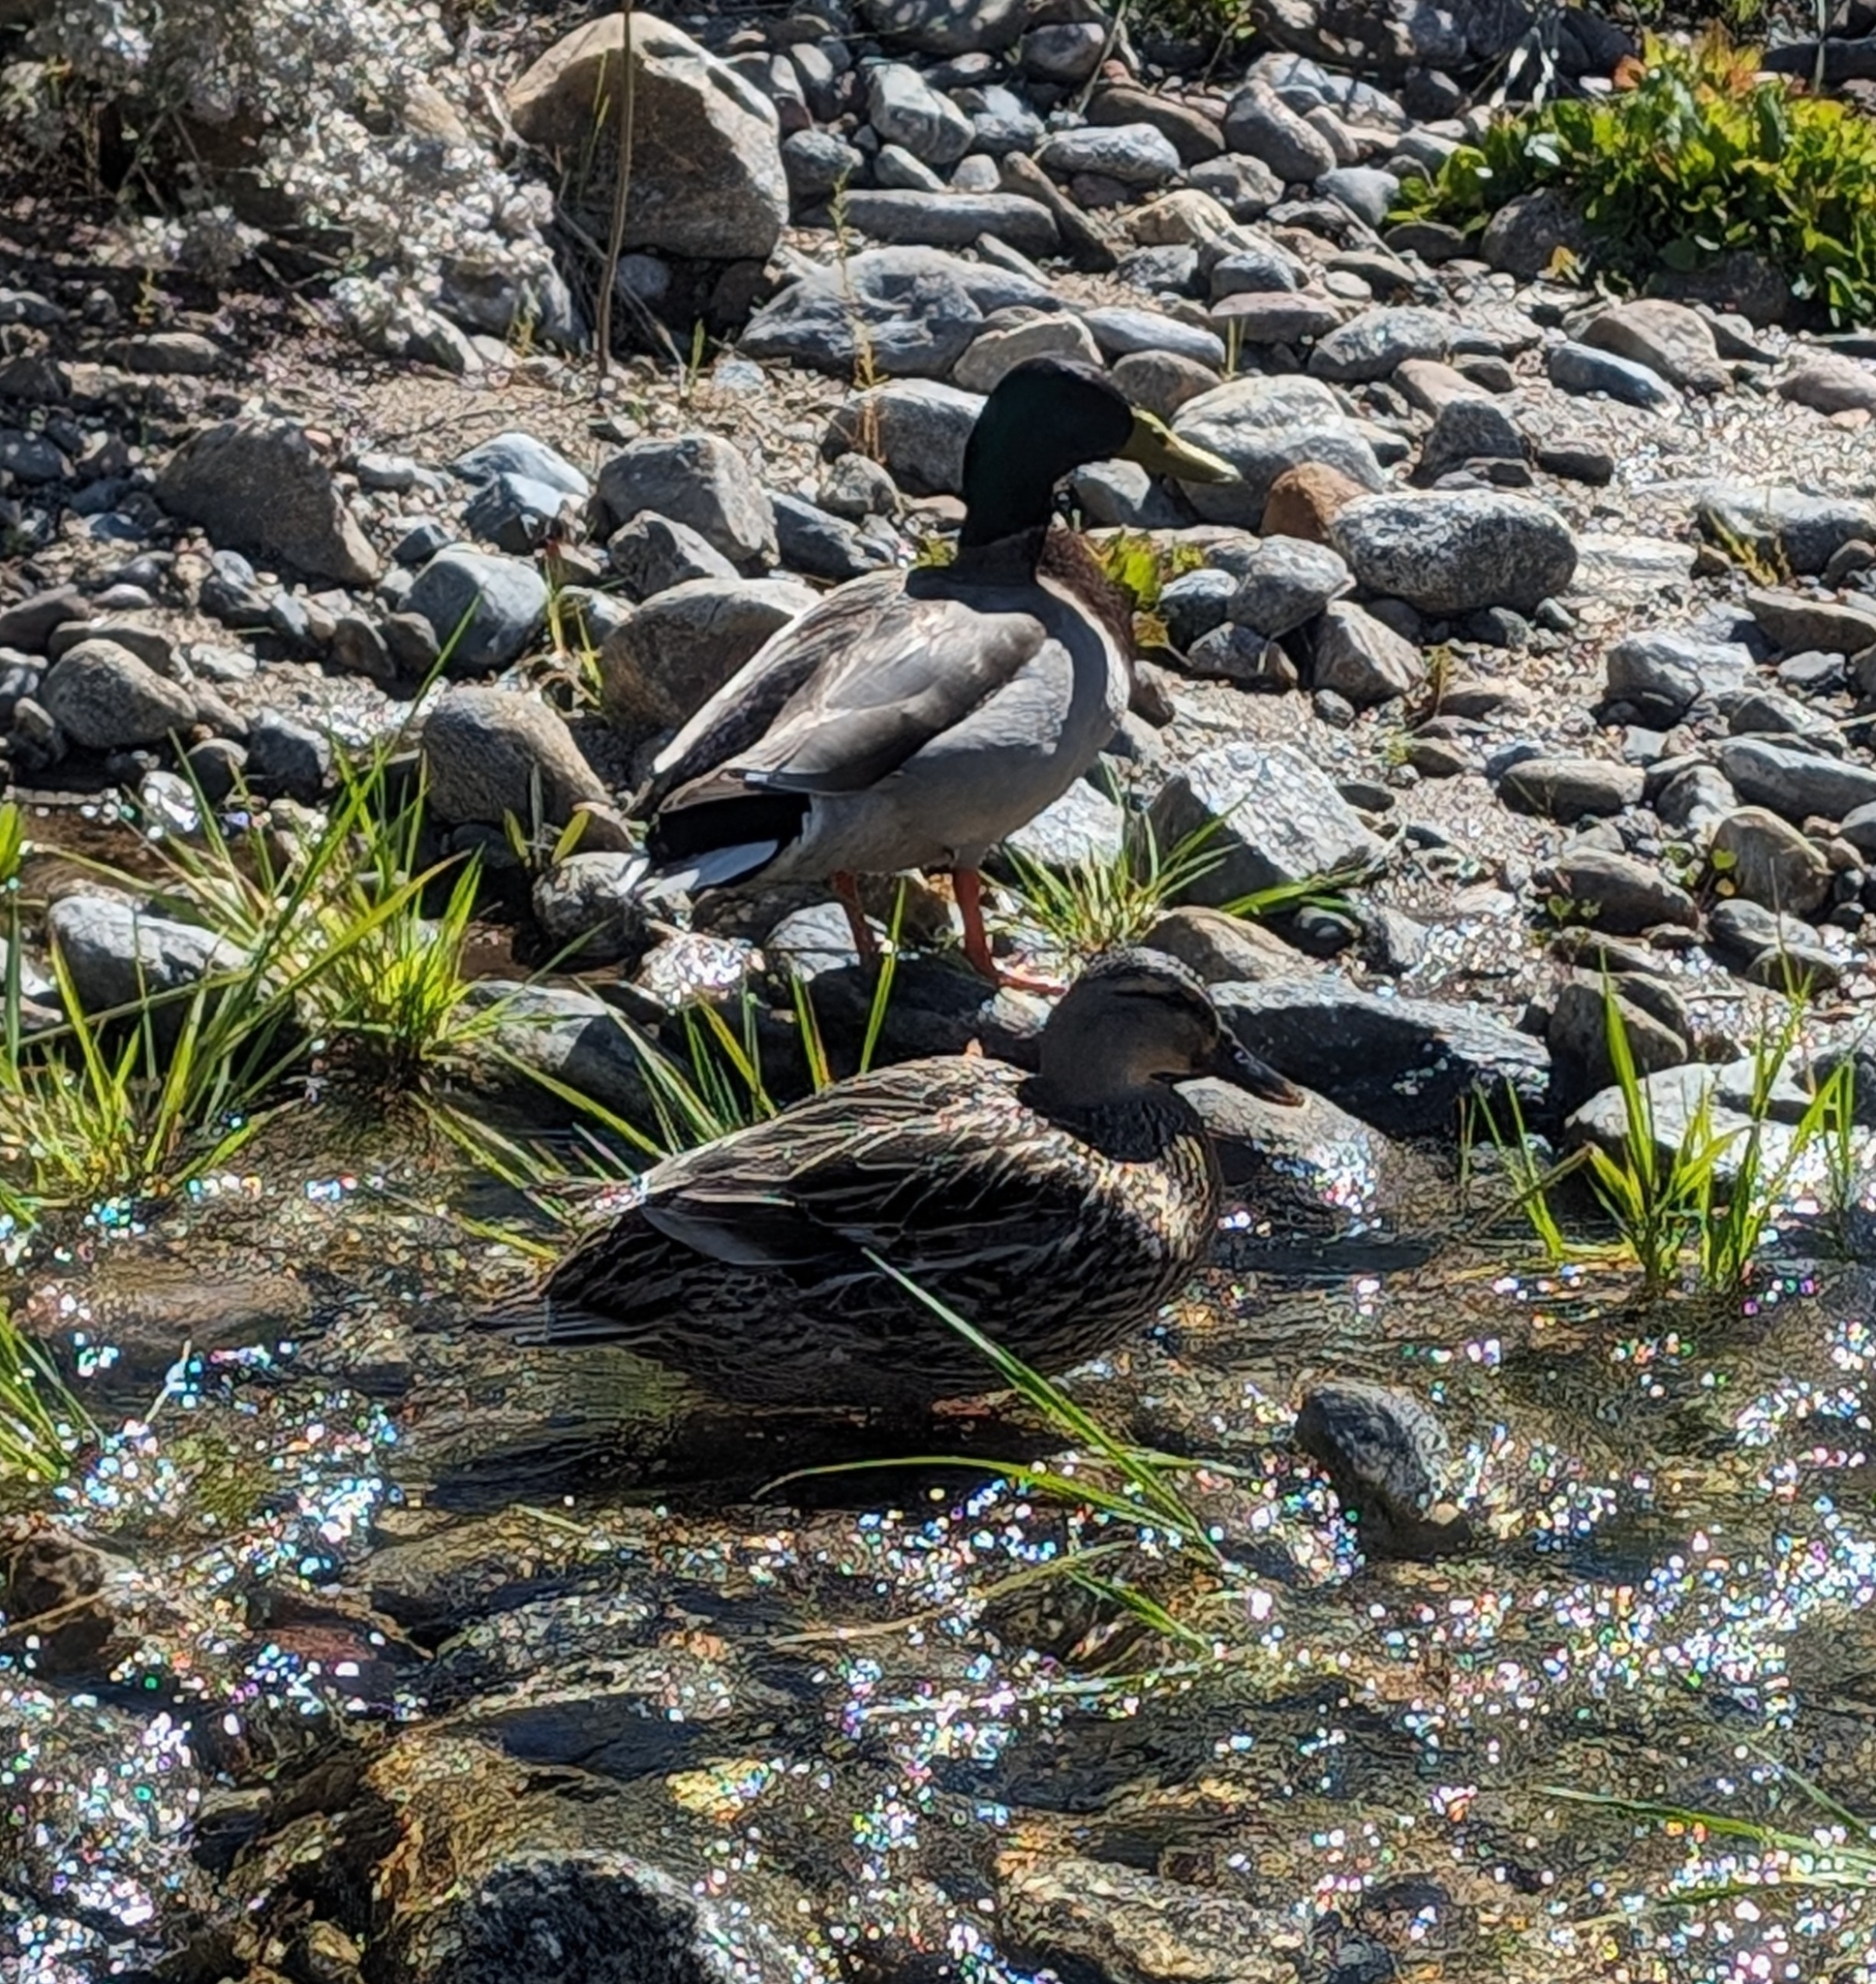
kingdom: Animalia
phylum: Chordata
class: Aves
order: Anseriformes
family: Anatidae
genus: Anas
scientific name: Anas platyrhynchos
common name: Mallard
